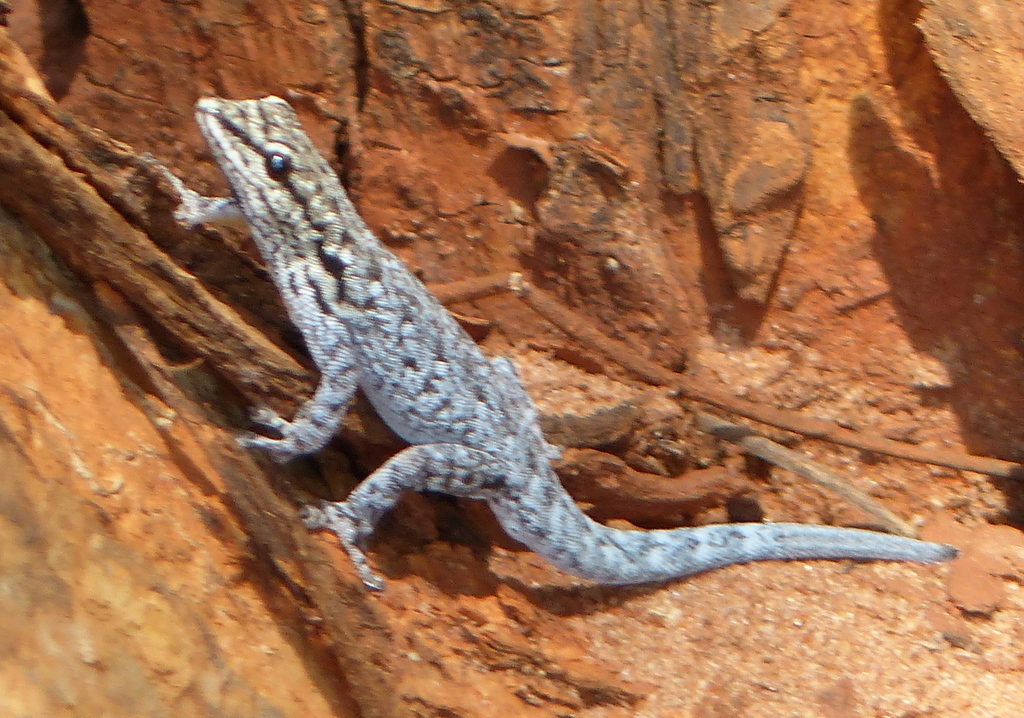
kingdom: Animalia
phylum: Chordata
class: Squamata
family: Gekkonidae
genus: Lygodactylus
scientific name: Lygodactylus chobiensis
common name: Okavango dwarf gecko
